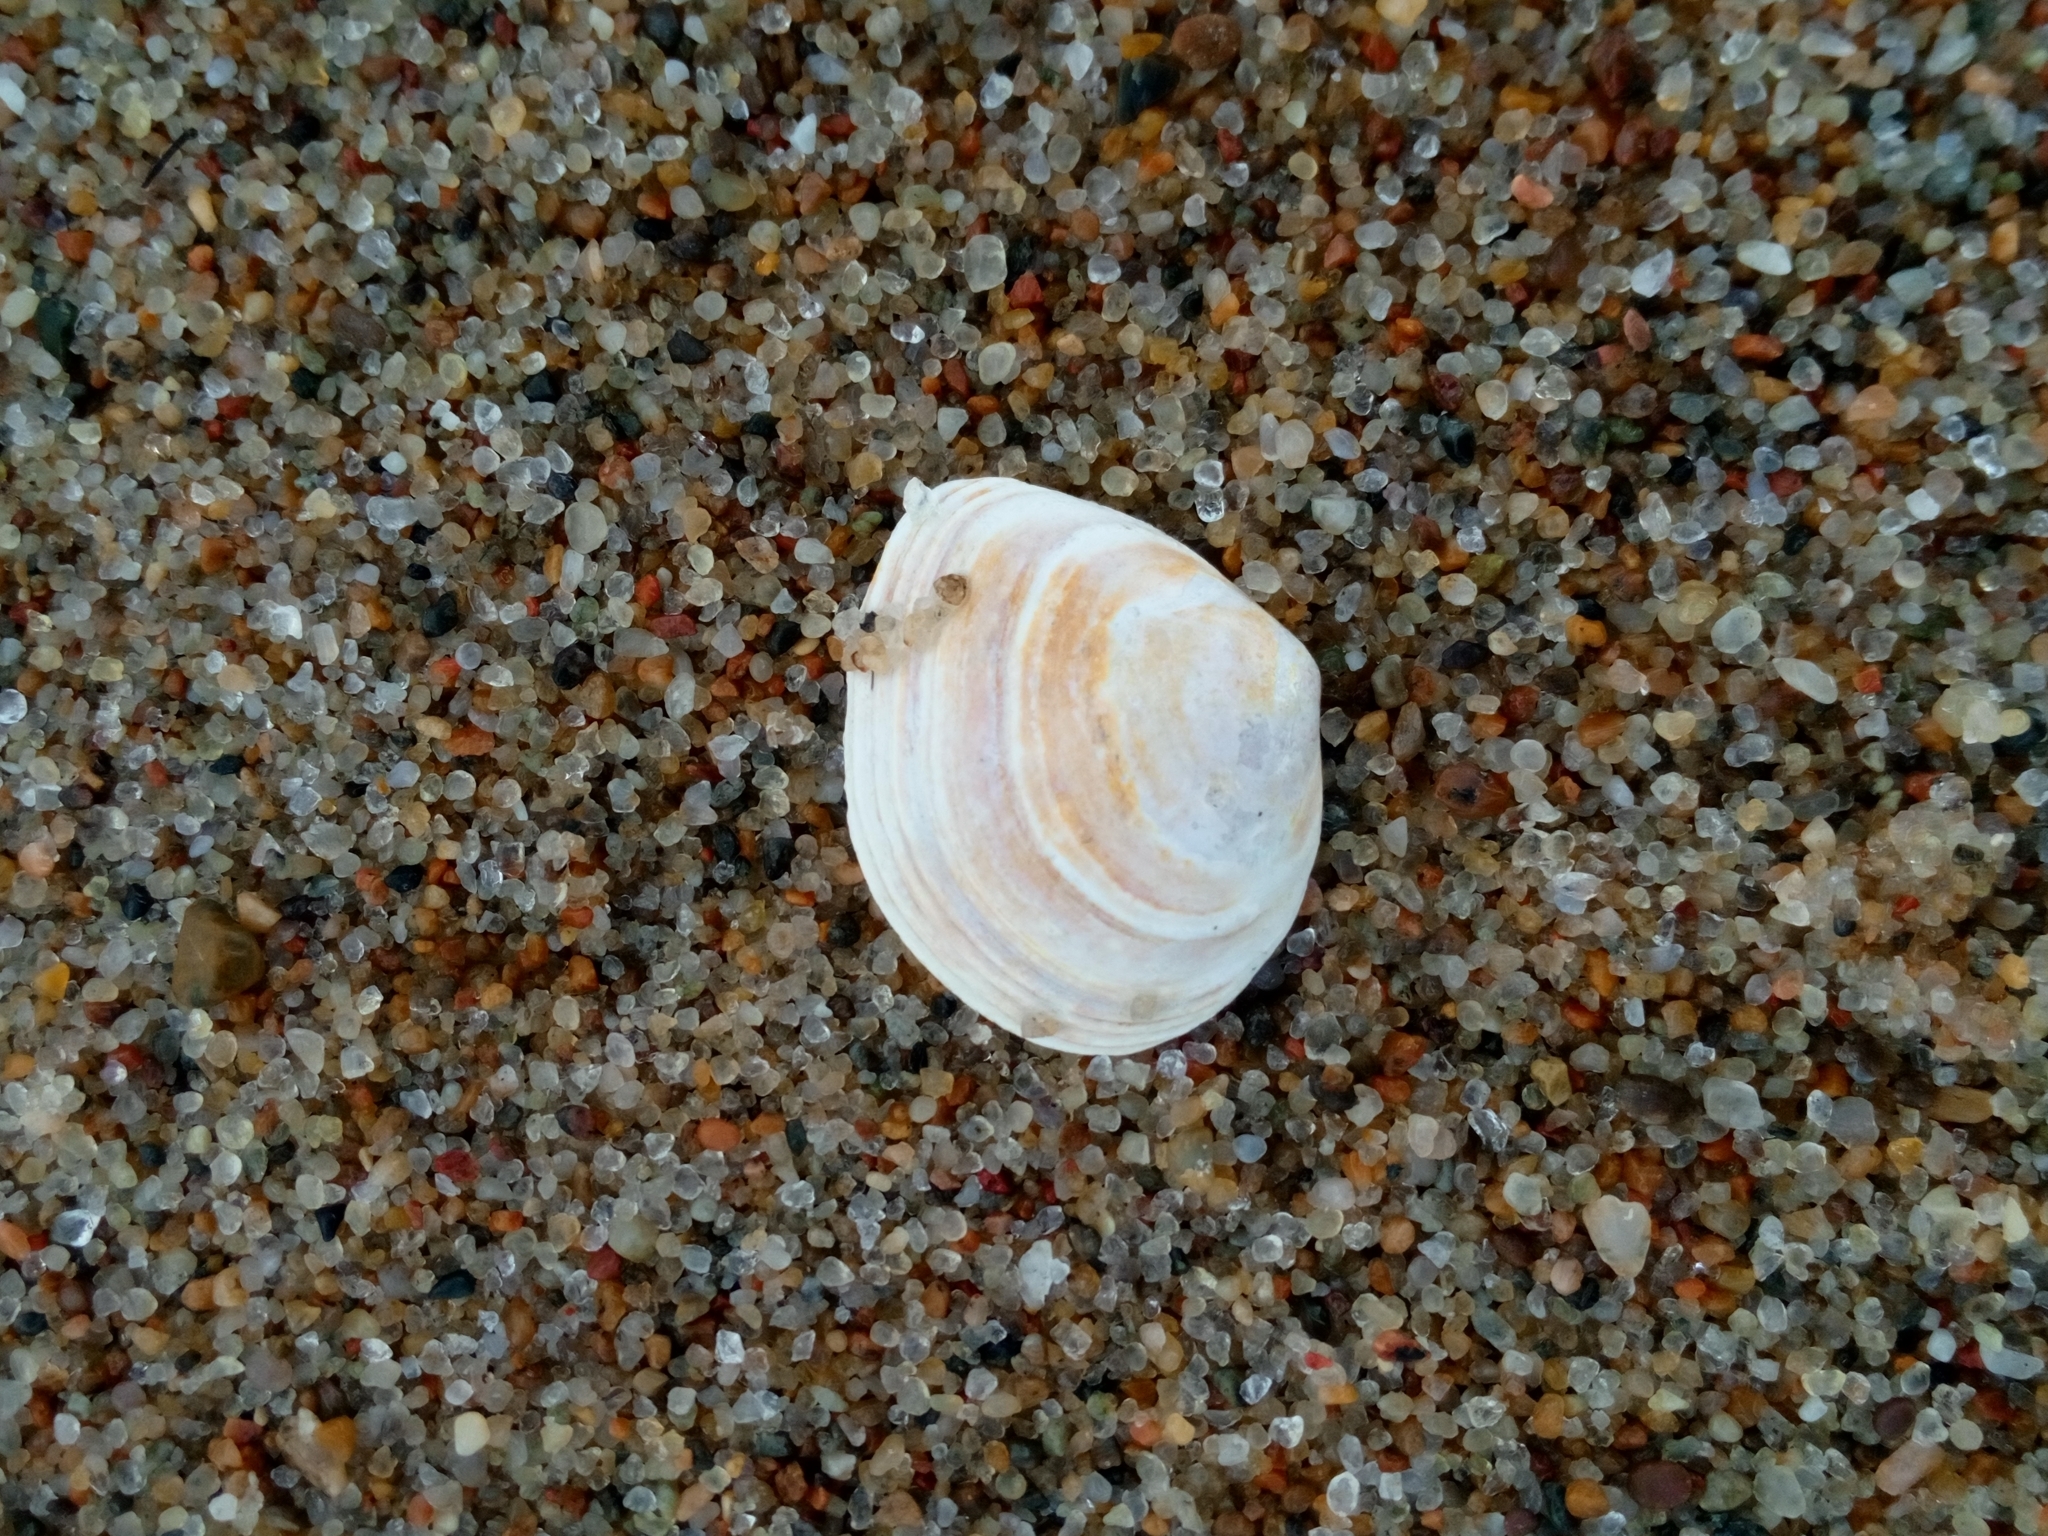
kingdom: Animalia
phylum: Mollusca
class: Bivalvia
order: Cardiida
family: Tellinidae
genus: Macoma
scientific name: Macoma balthica
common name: Baltic tellin
